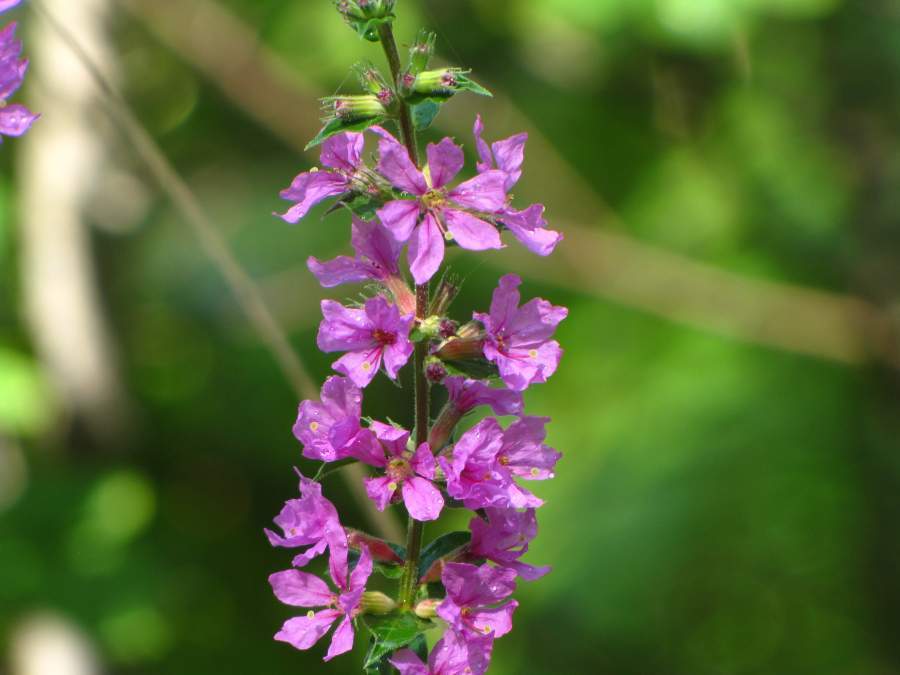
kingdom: Plantae
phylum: Tracheophyta
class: Magnoliopsida
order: Myrtales
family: Lythraceae
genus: Lythrum
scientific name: Lythrum salicaria
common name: Purple loosestrife
